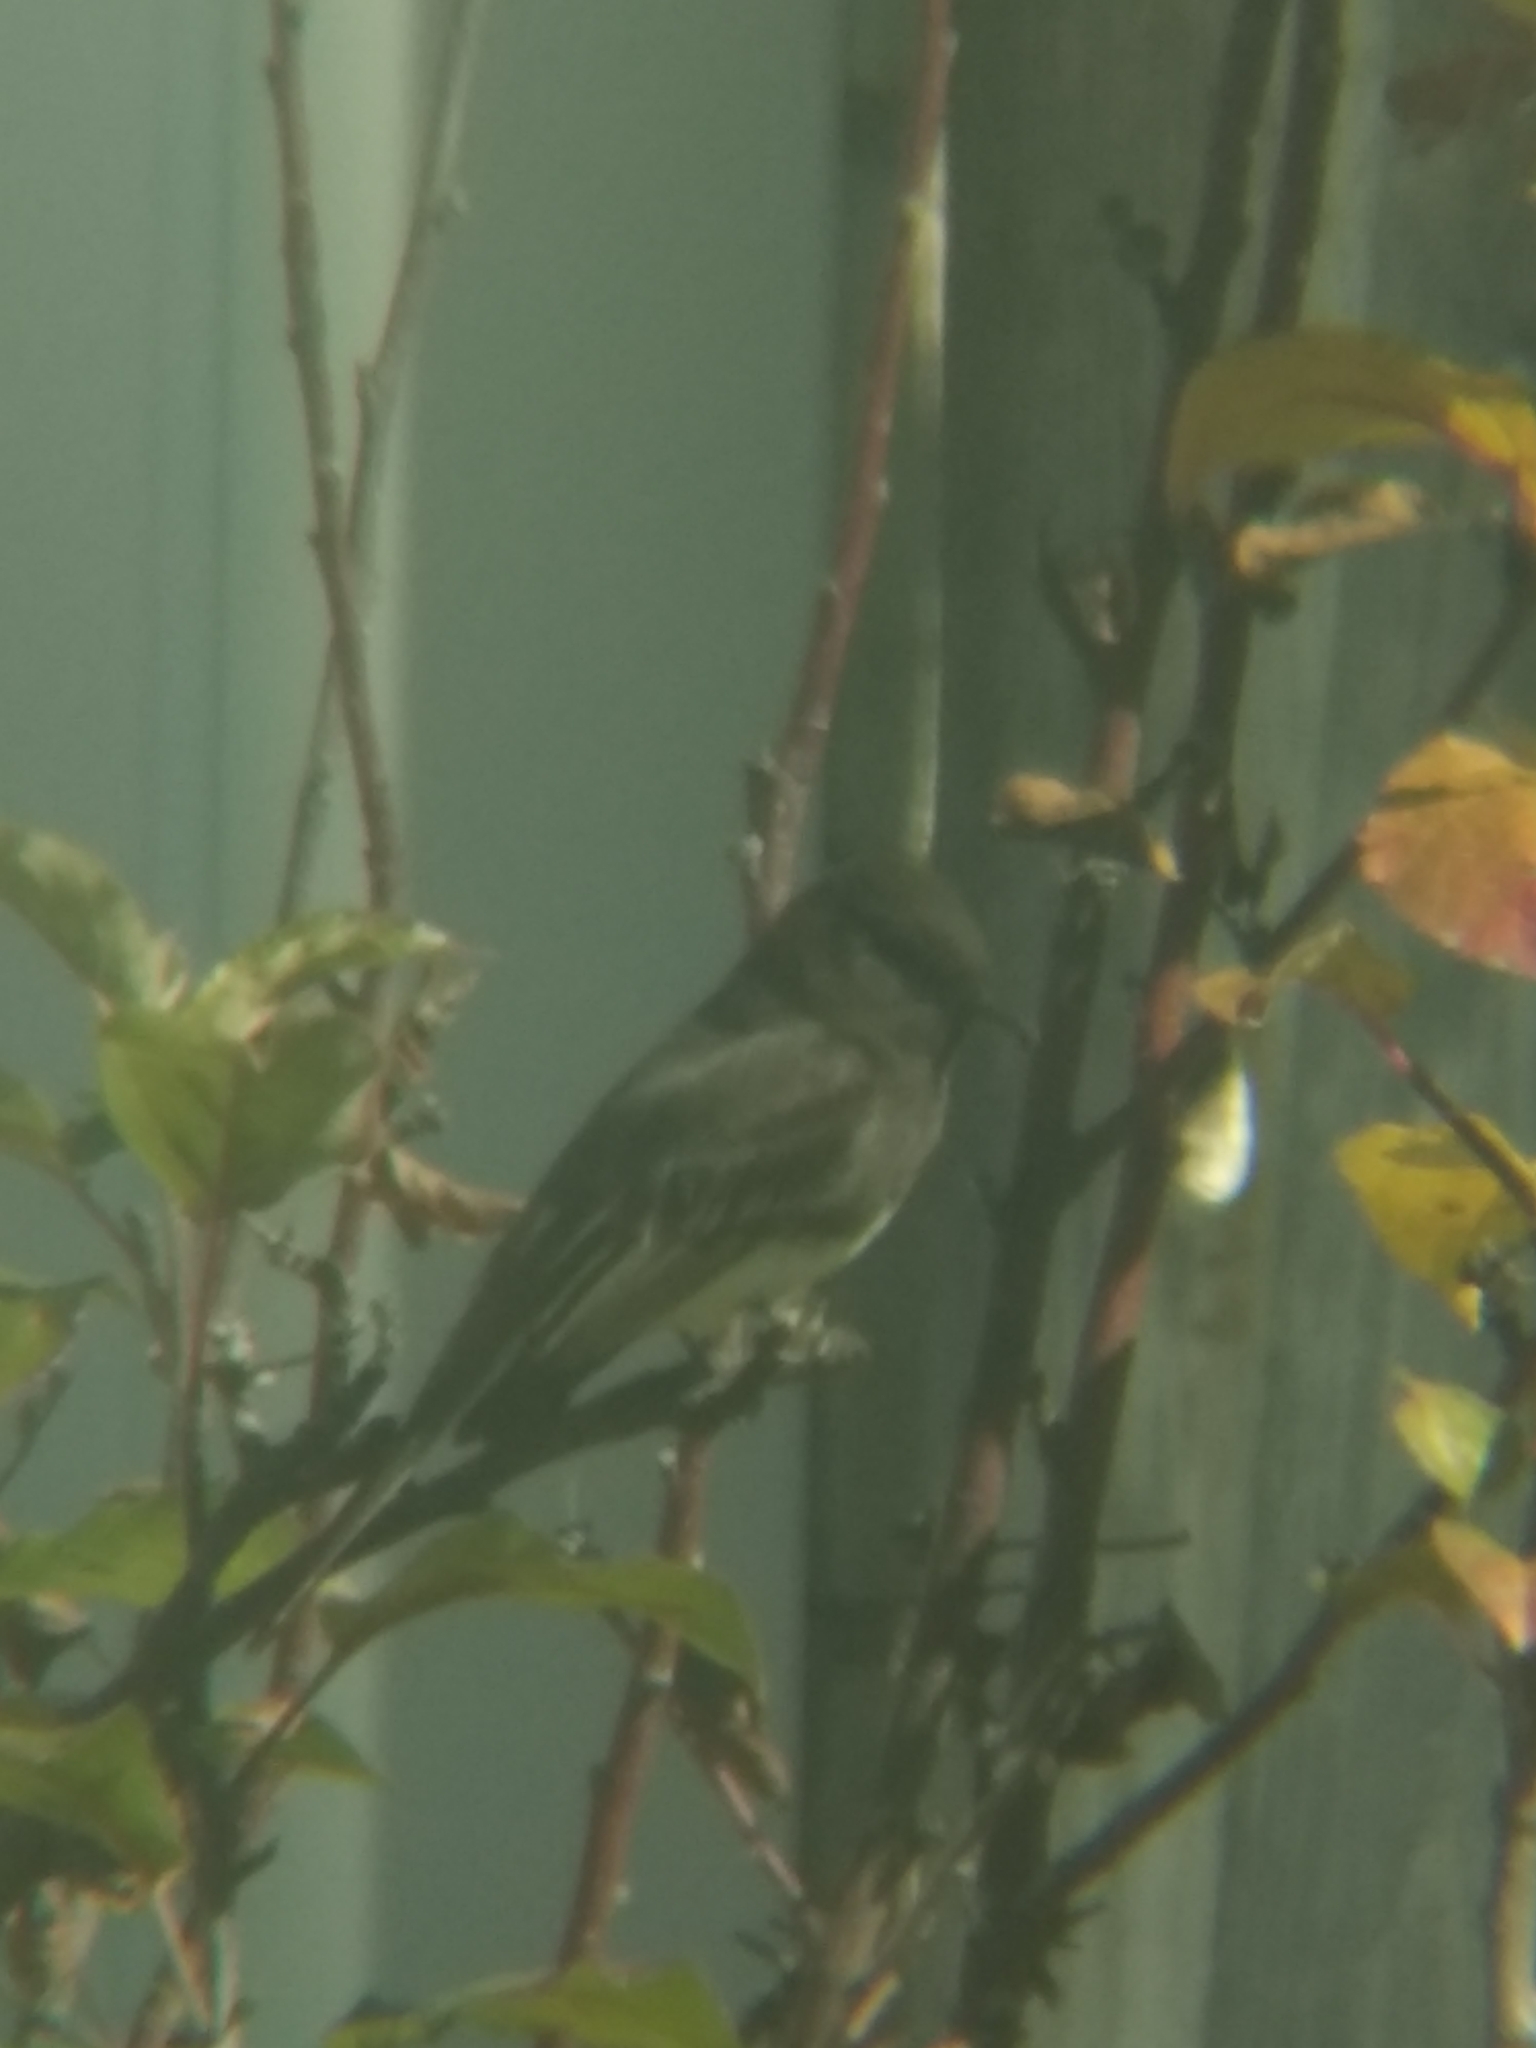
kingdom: Animalia
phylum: Chordata
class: Aves
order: Passeriformes
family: Tyrannidae
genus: Sayornis
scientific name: Sayornis nigricans
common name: Black phoebe
